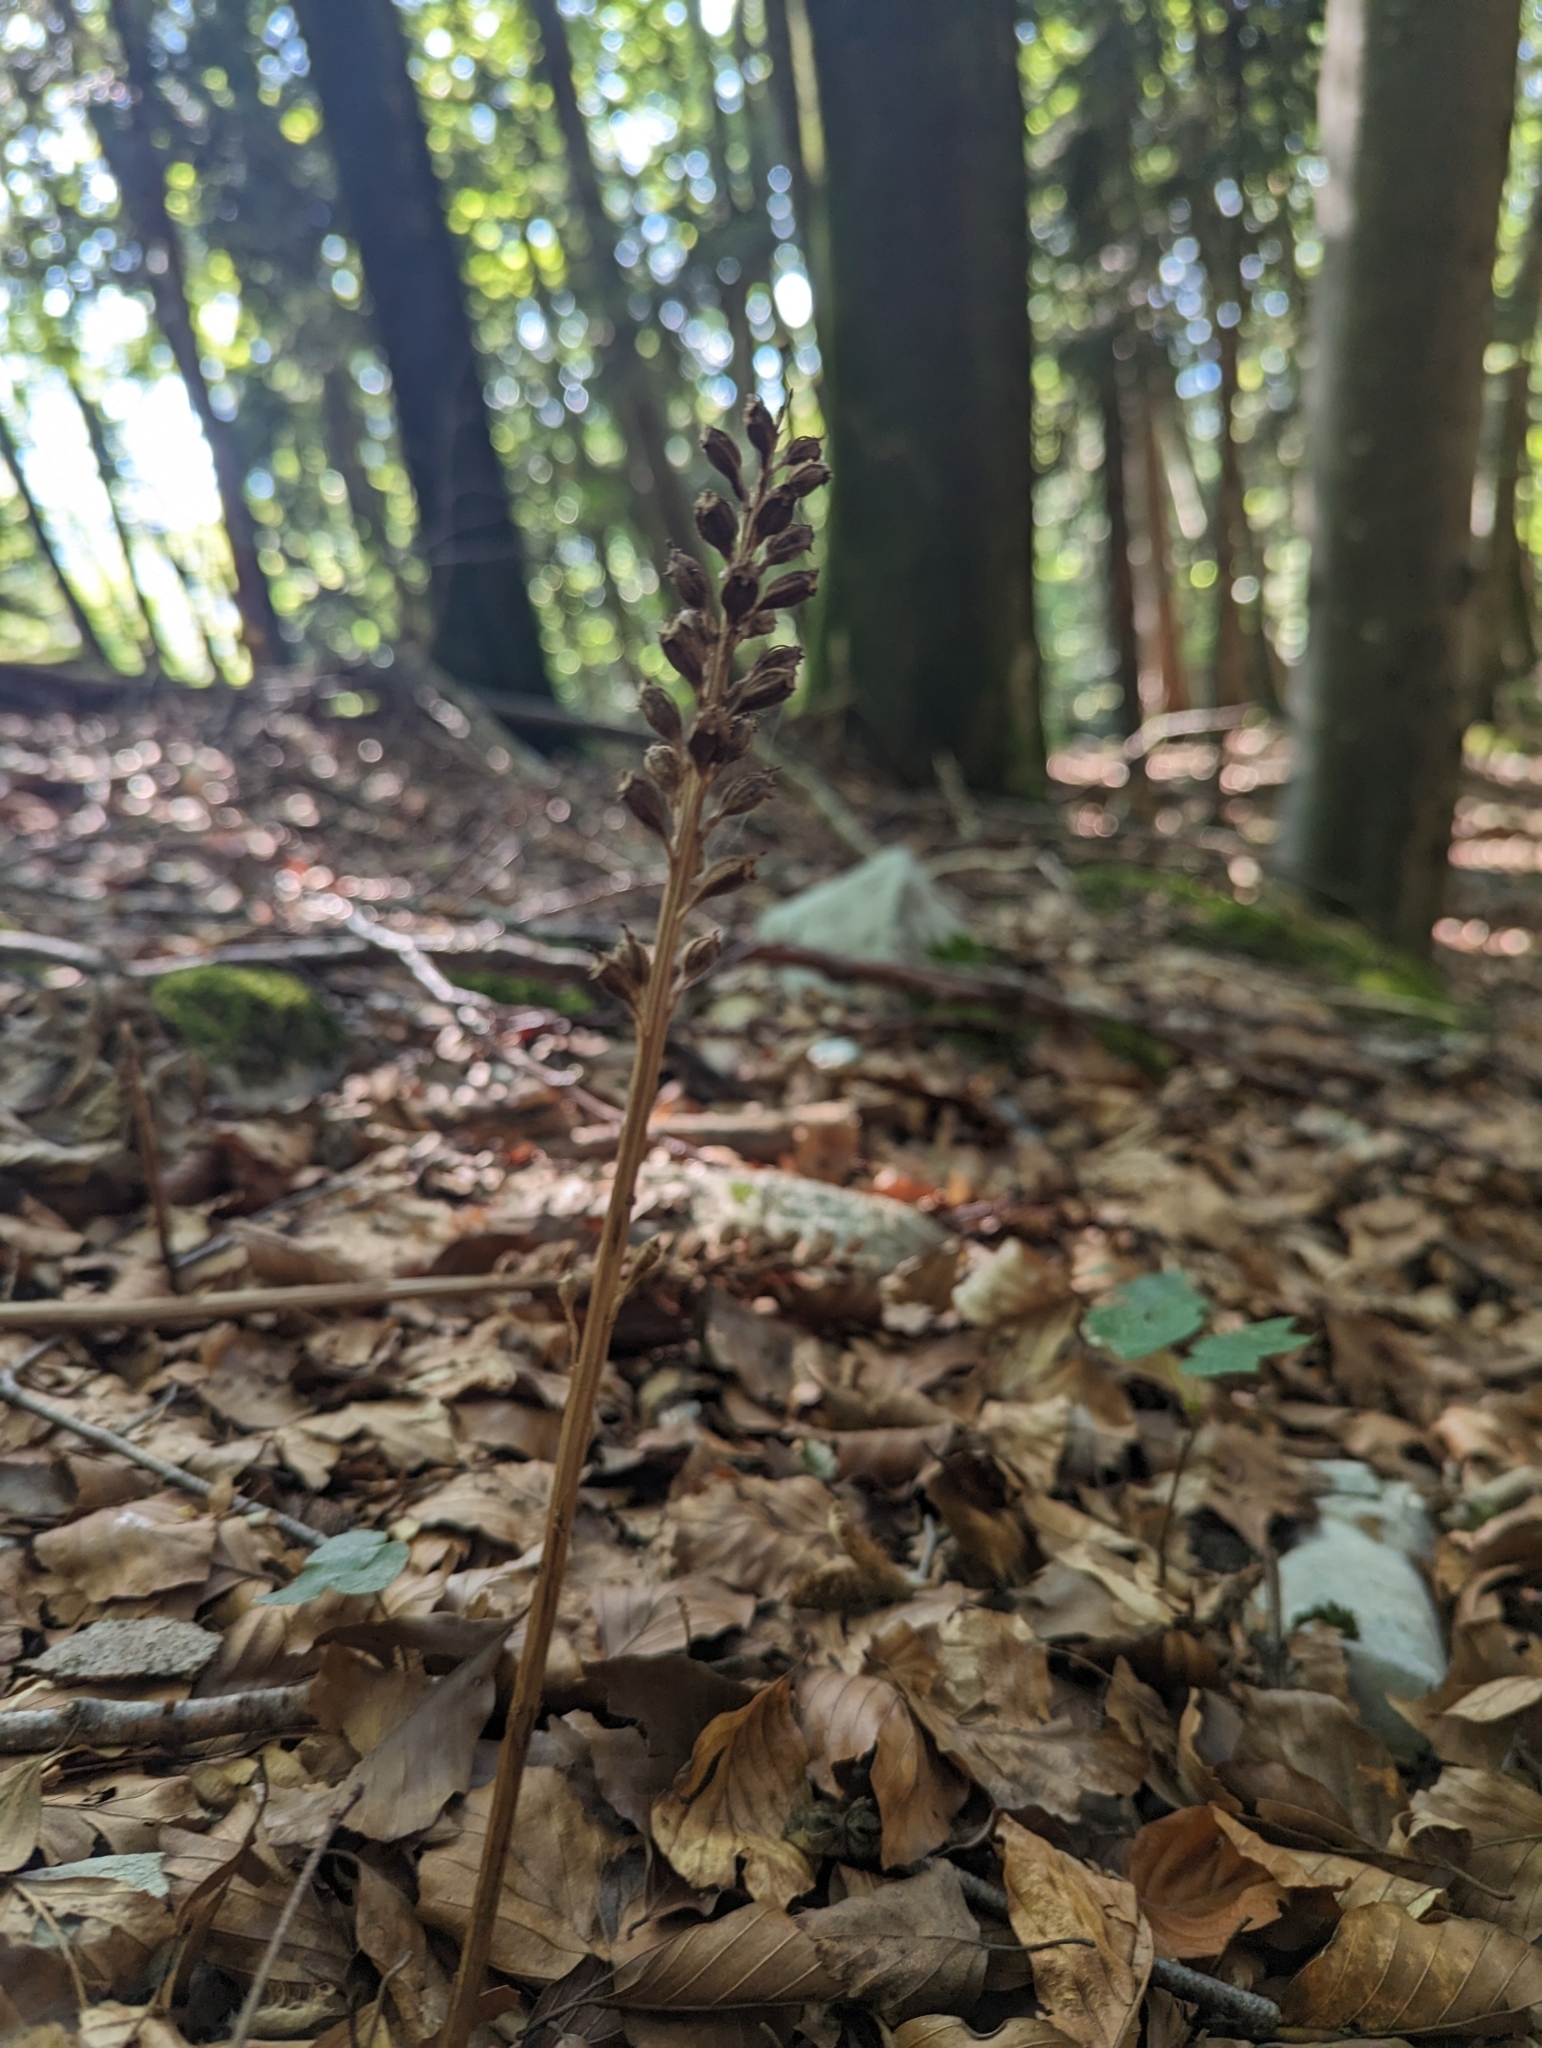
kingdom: Plantae
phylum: Tracheophyta
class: Liliopsida
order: Asparagales
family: Orchidaceae
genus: Neottia
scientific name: Neottia nidus-avis
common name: Bird's-nest orchid
